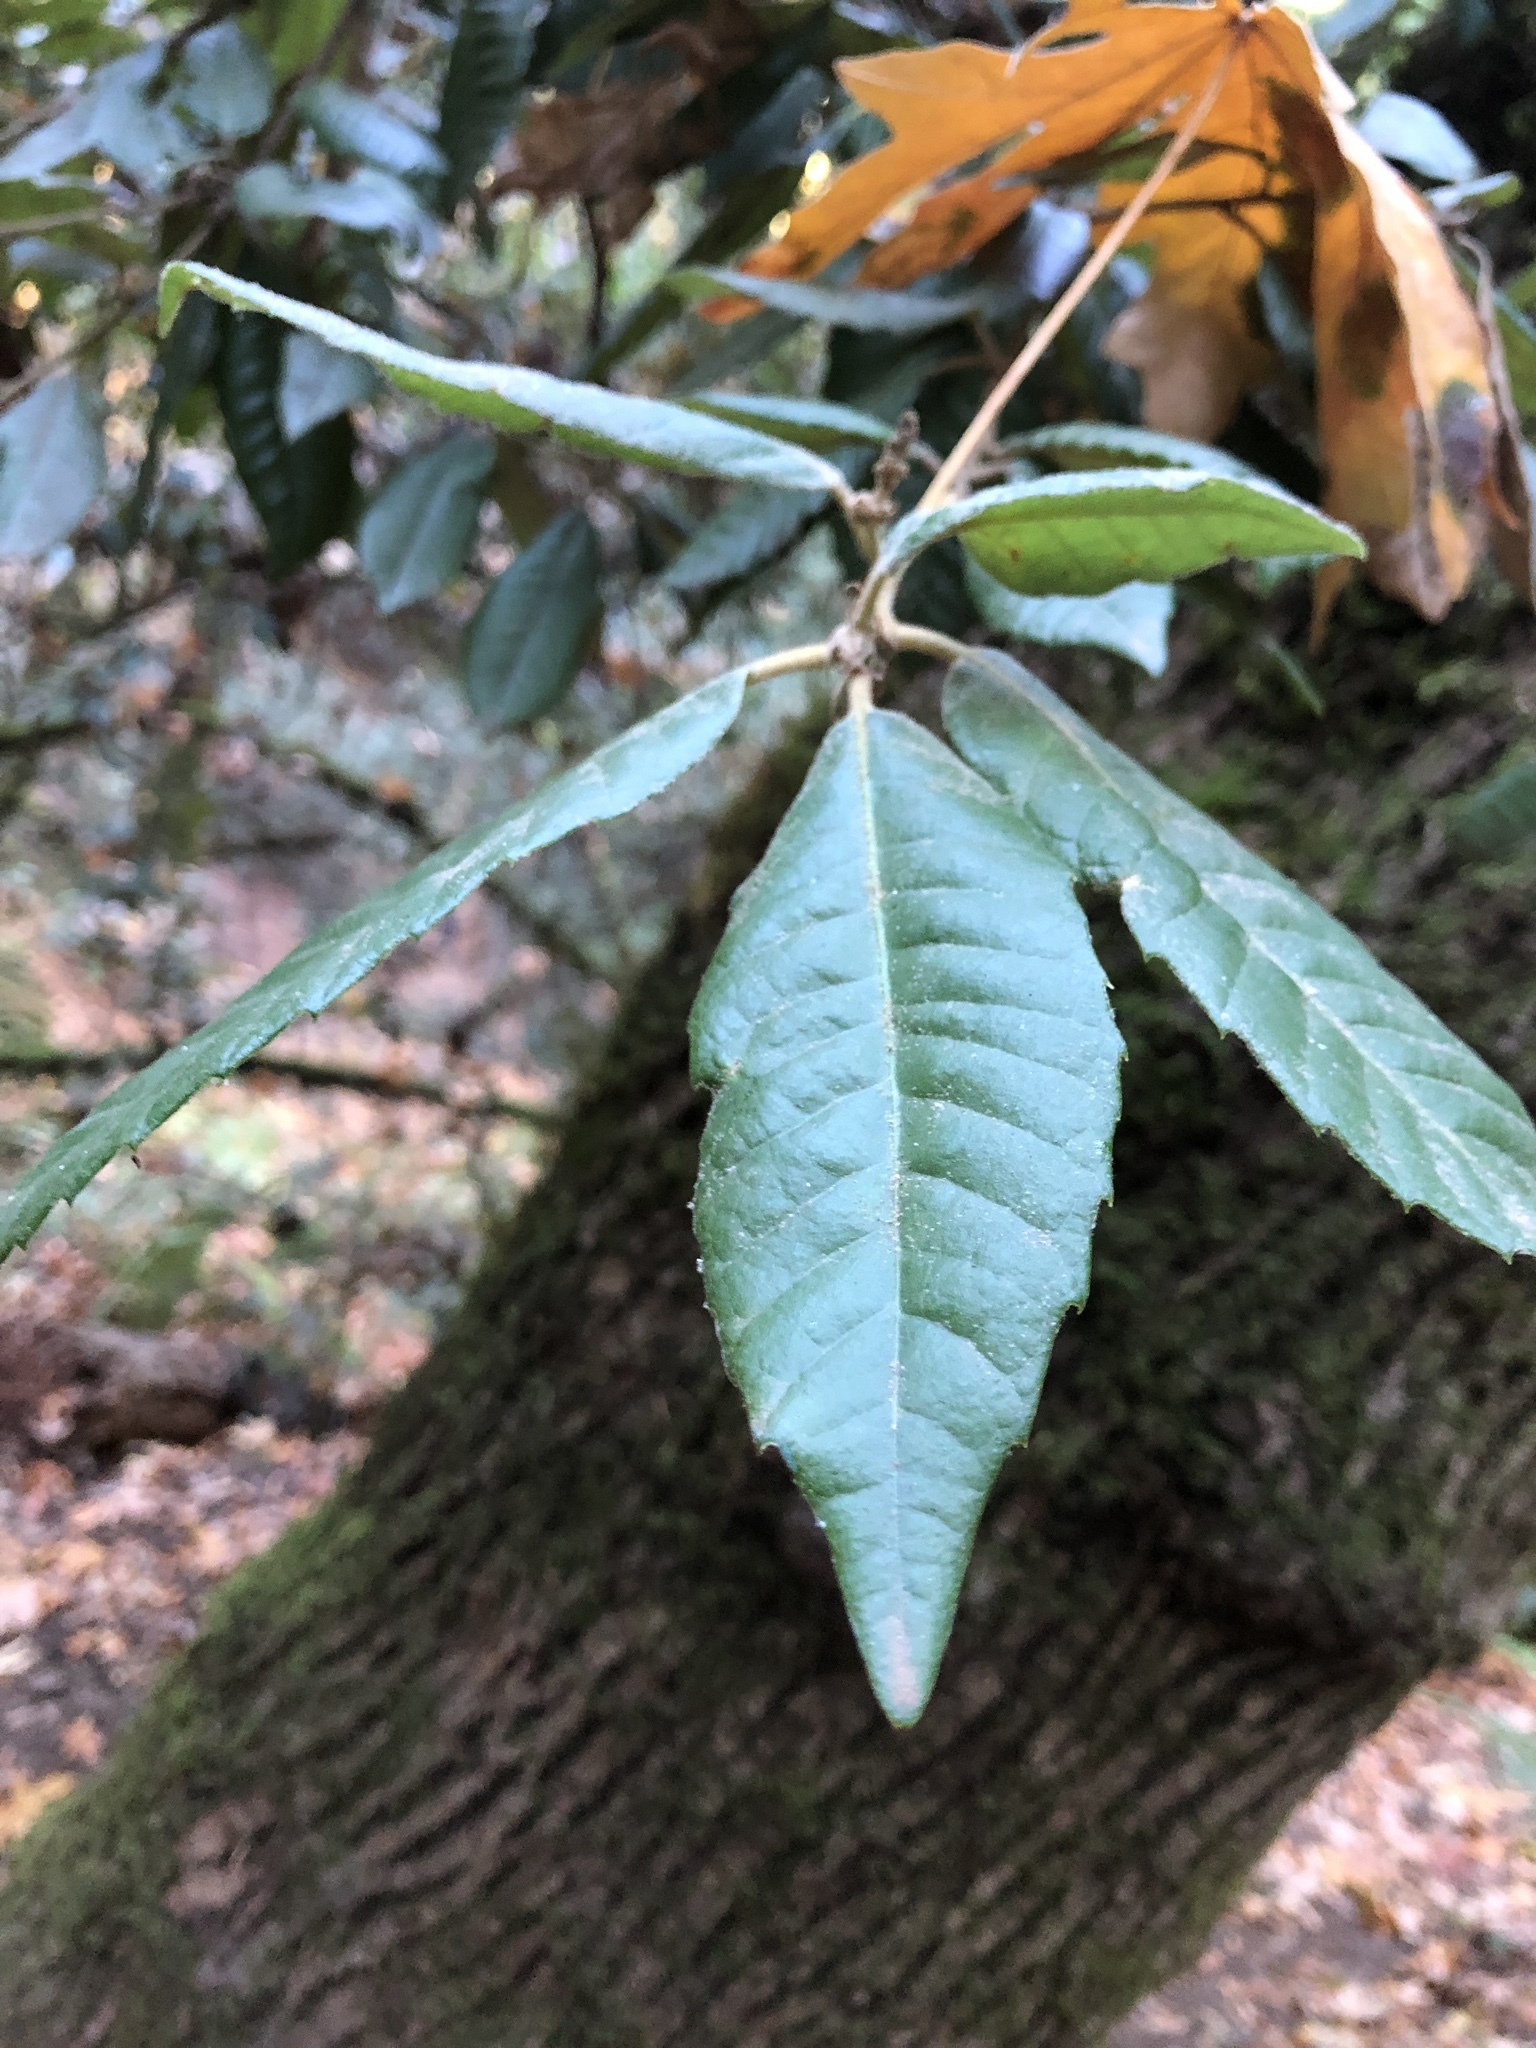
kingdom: Plantae
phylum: Tracheophyta
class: Magnoliopsida
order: Fagales
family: Fagaceae
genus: Notholithocarpus
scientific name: Notholithocarpus densiflorus
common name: Tan bark oak
